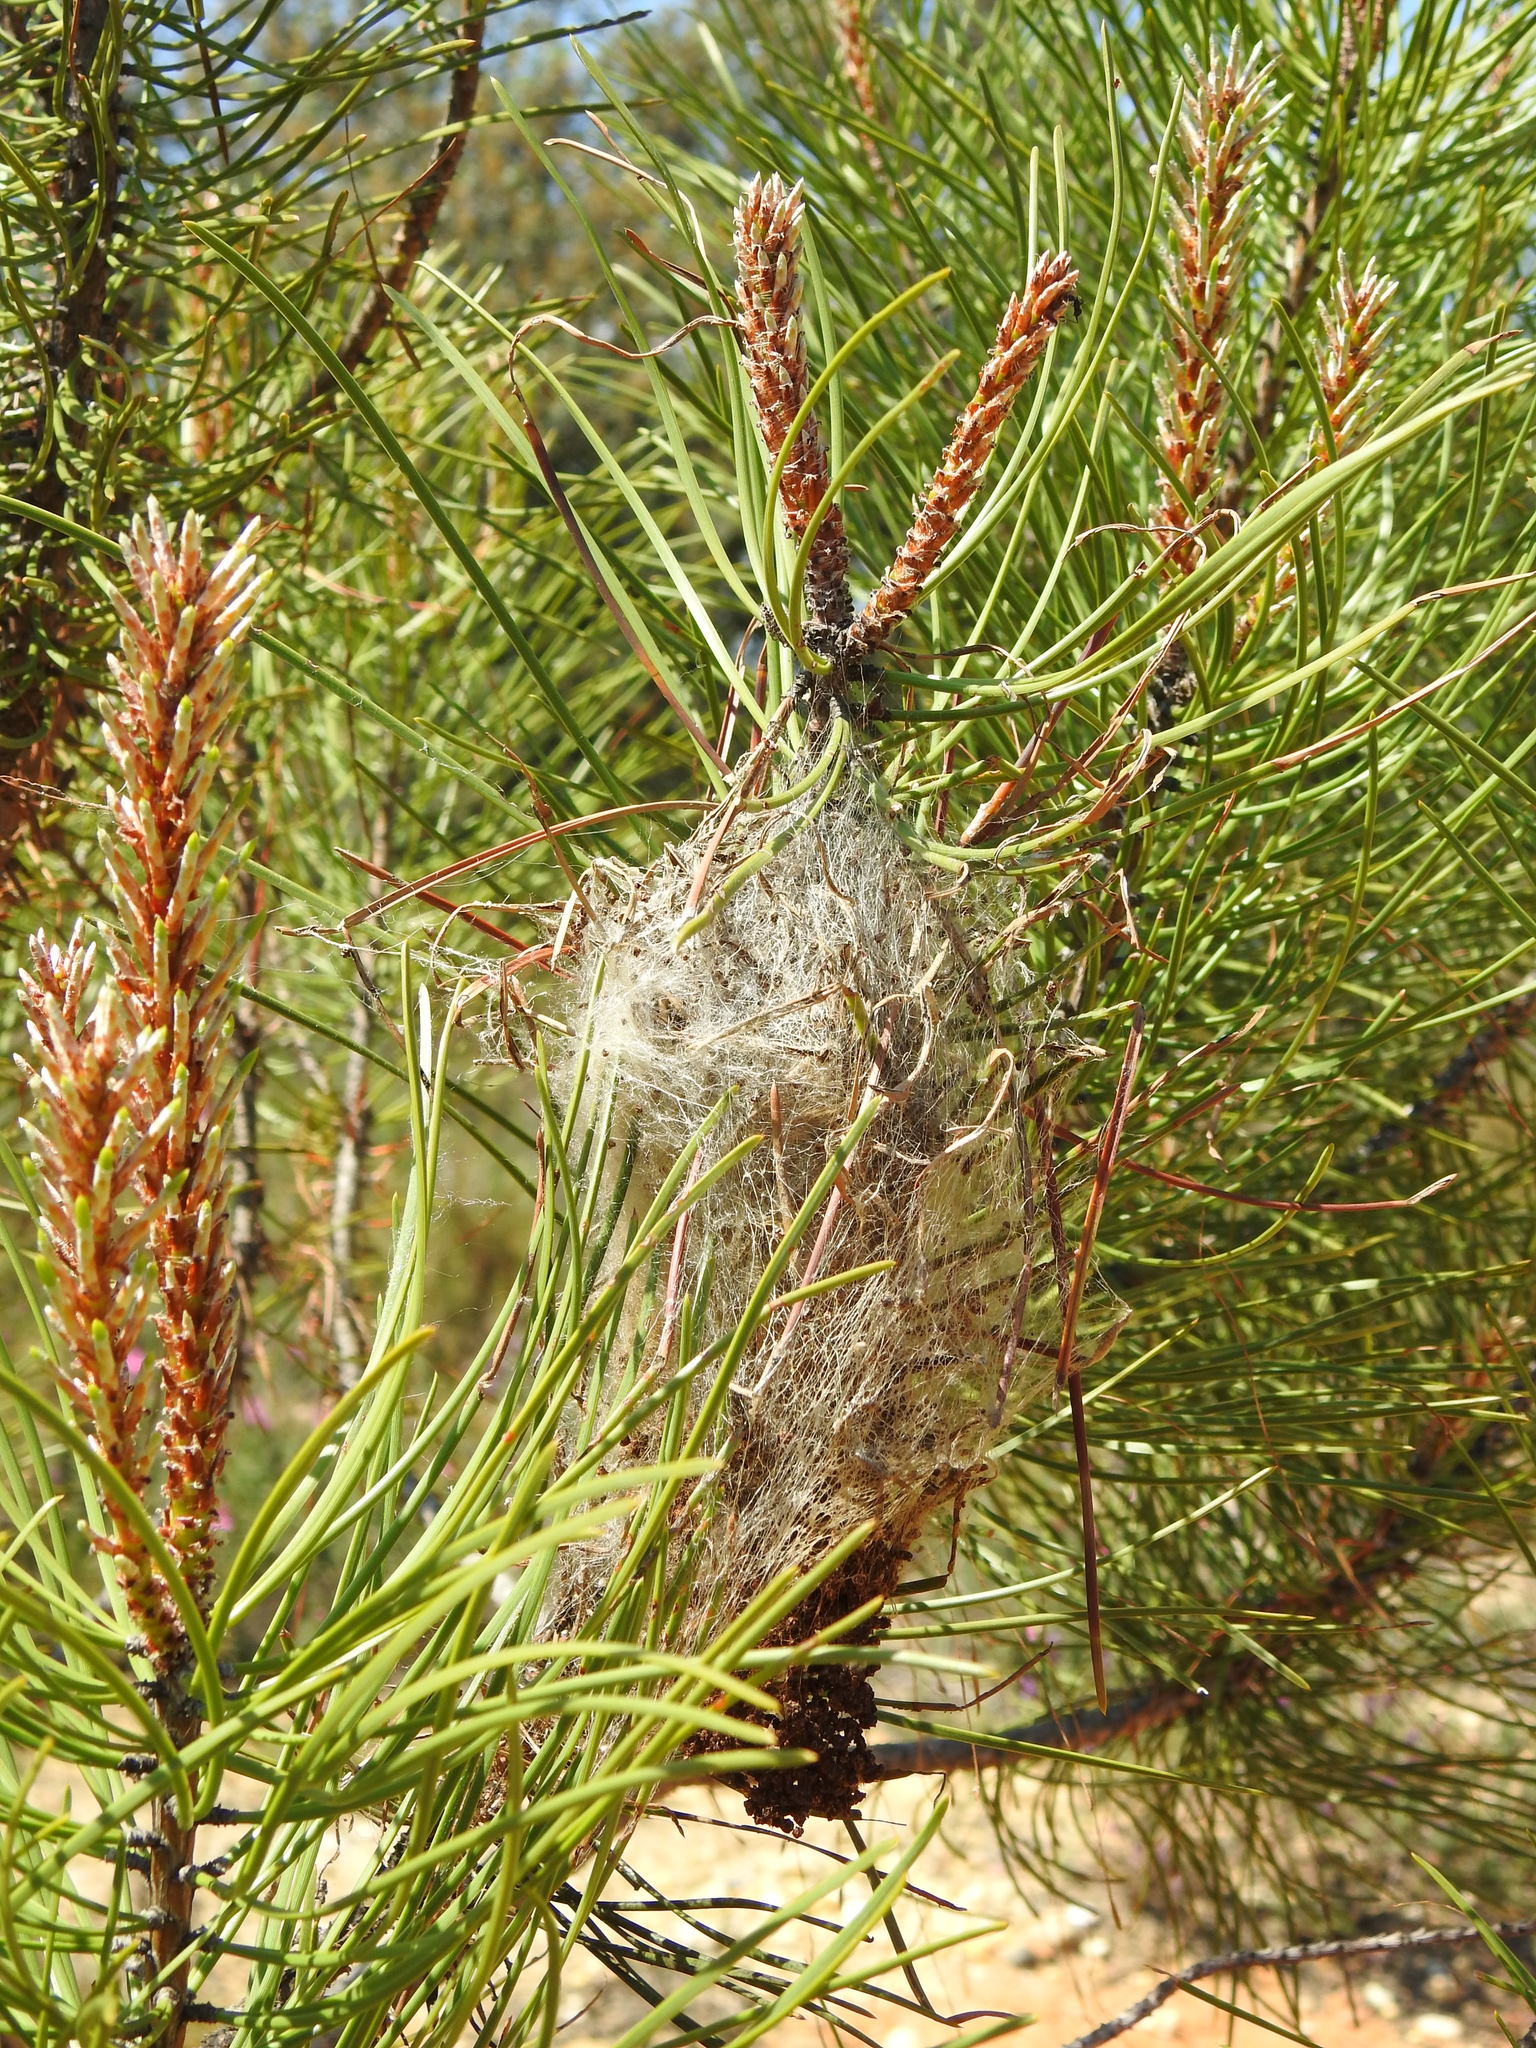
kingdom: Animalia
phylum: Arthropoda
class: Insecta
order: Lepidoptera
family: Notodontidae
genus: Thaumetopoea
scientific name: Thaumetopoea pityocampa
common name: Pine processionary
